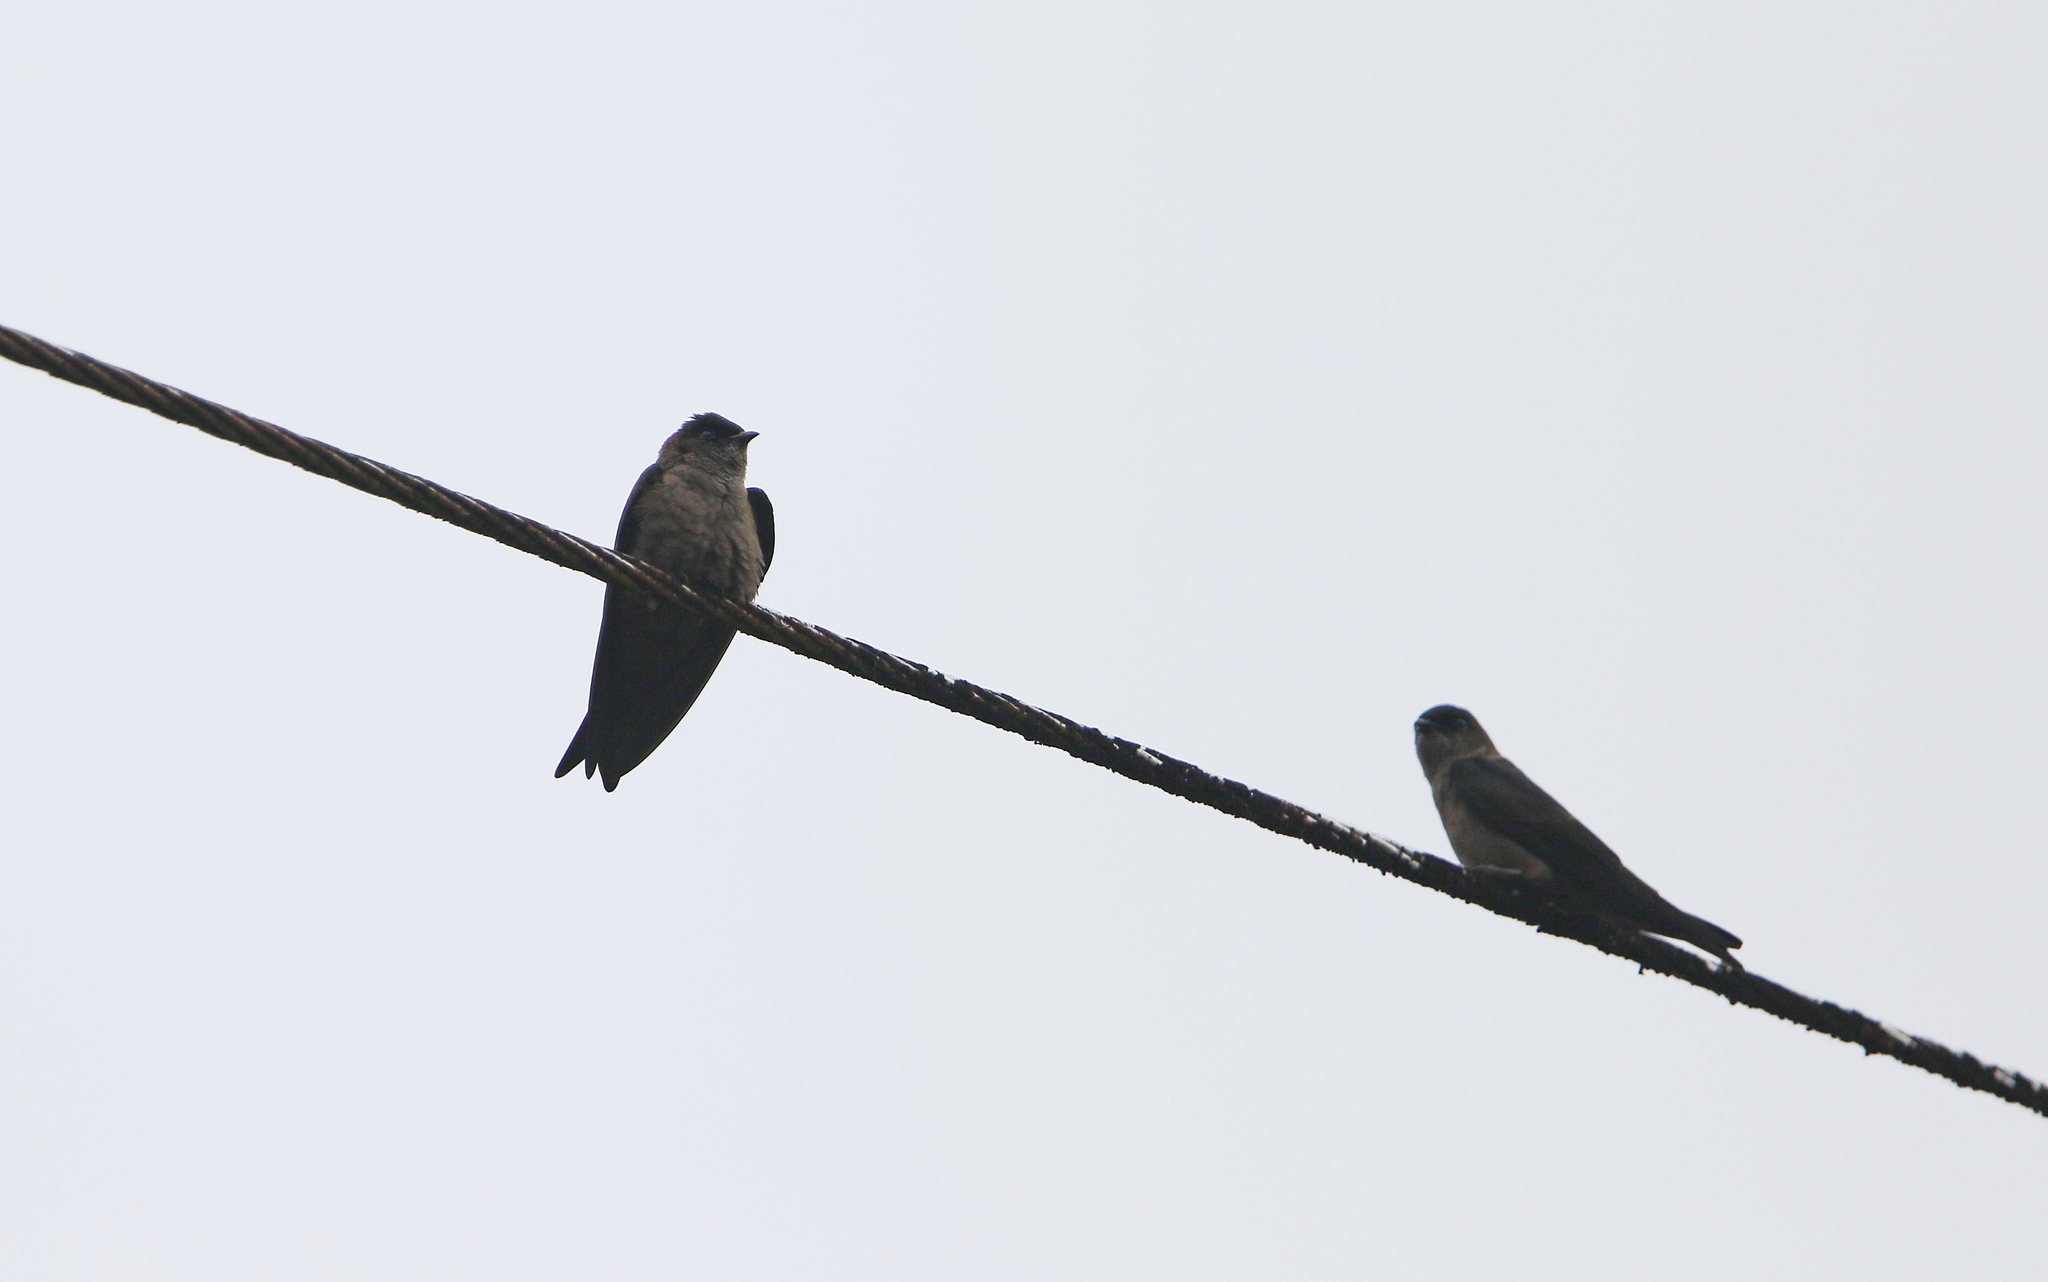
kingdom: Animalia
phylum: Chordata
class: Aves
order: Passeriformes
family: Hirundinidae
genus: Neochelidon
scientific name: Neochelidon tibialis
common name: White-thighed swallow
